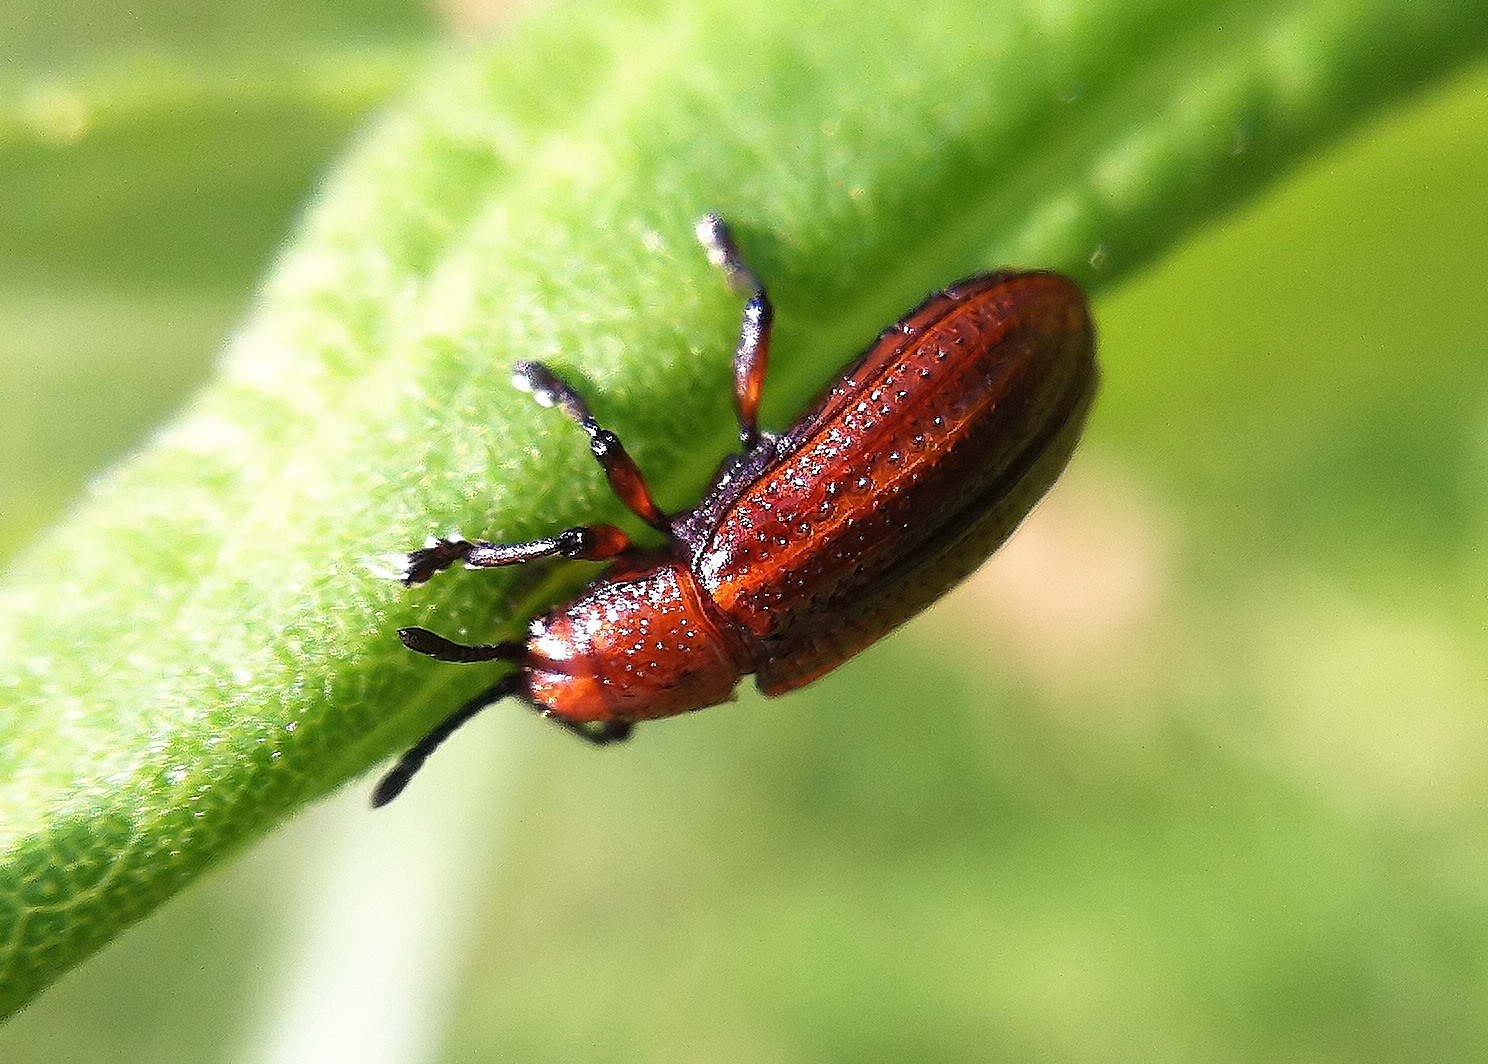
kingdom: Animalia
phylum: Arthropoda
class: Insecta
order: Coleoptera
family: Chrysomelidae
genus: Microrhopala
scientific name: Microrhopala vittata
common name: Goldenrod leaf miner beetle
